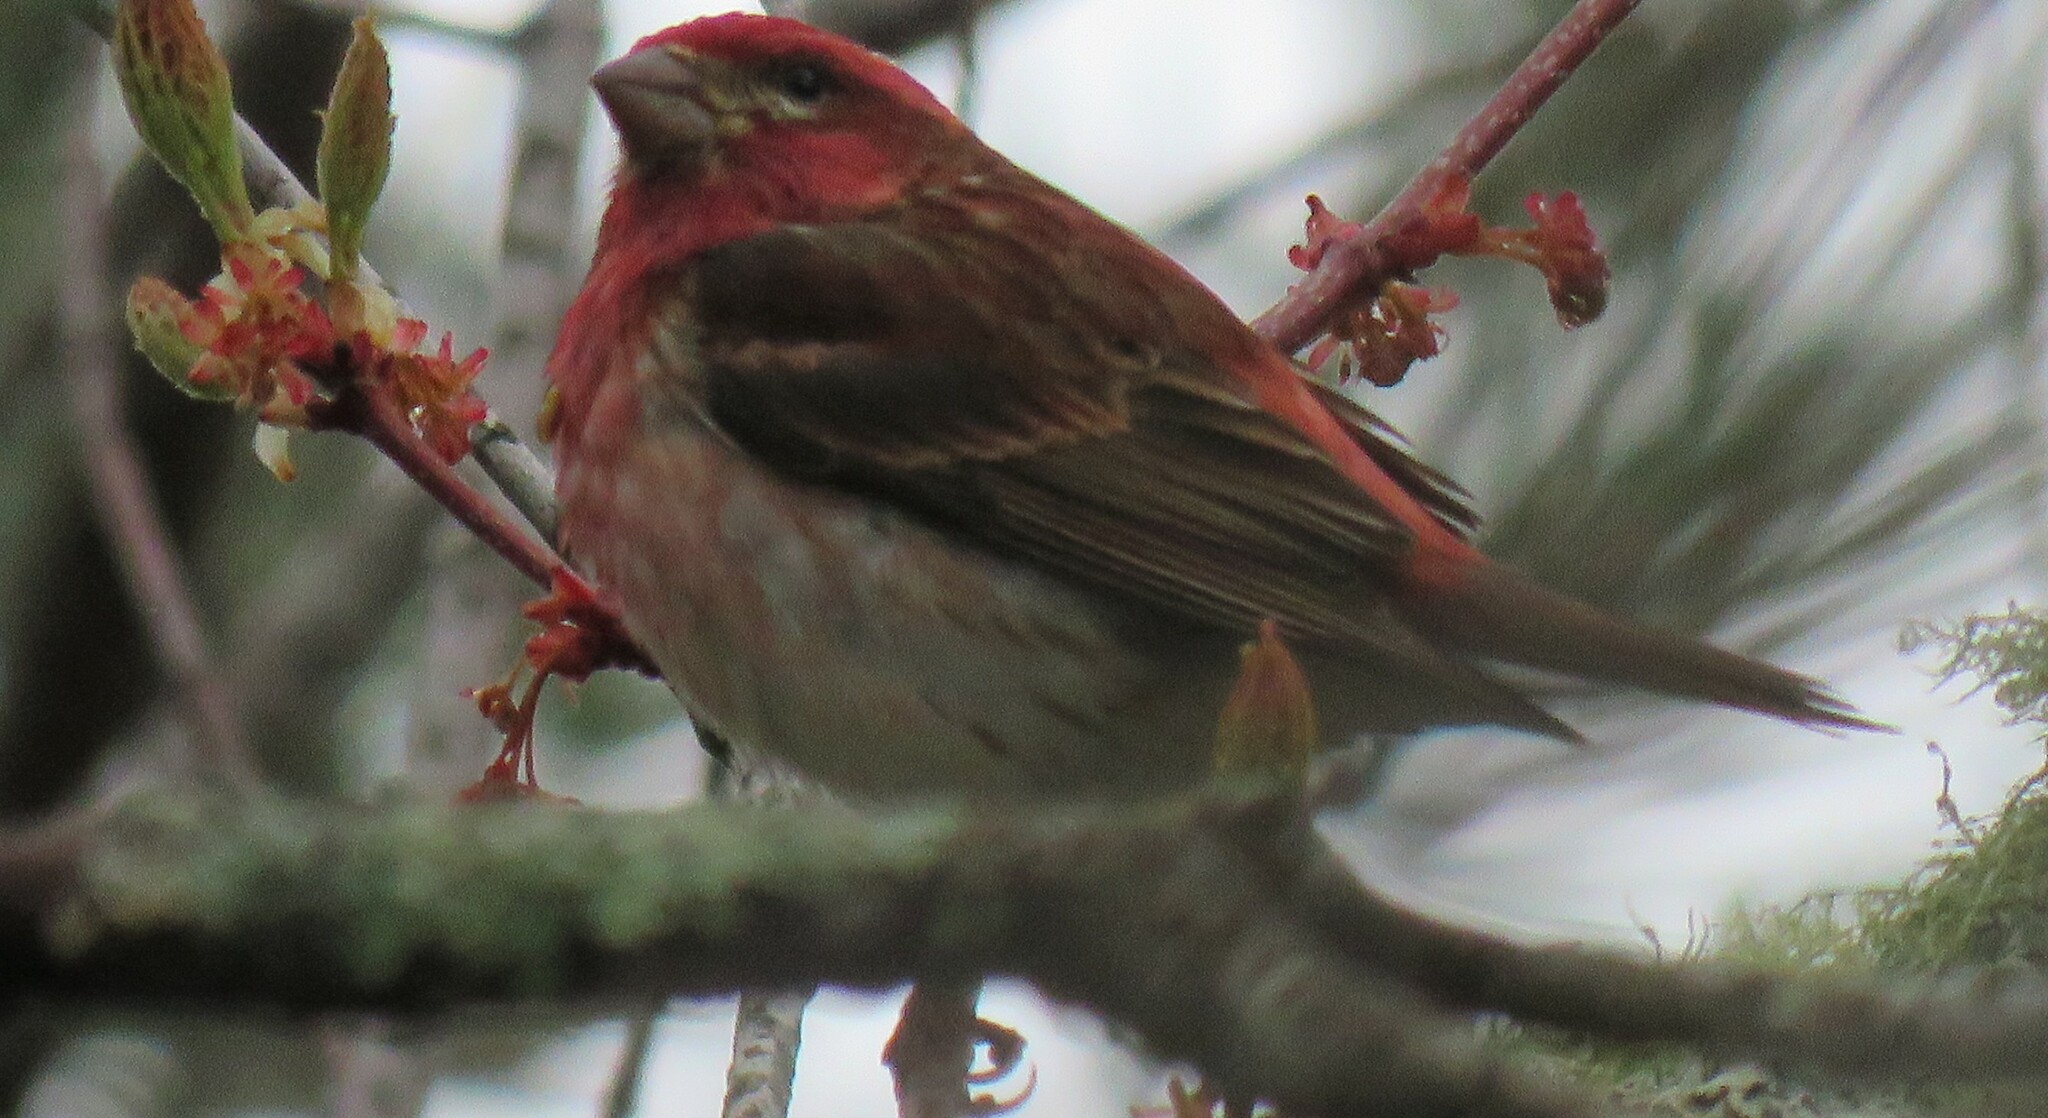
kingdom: Animalia
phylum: Chordata
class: Aves
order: Passeriformes
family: Fringillidae
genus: Haemorhous
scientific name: Haemorhous purpureus
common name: Purple finch
